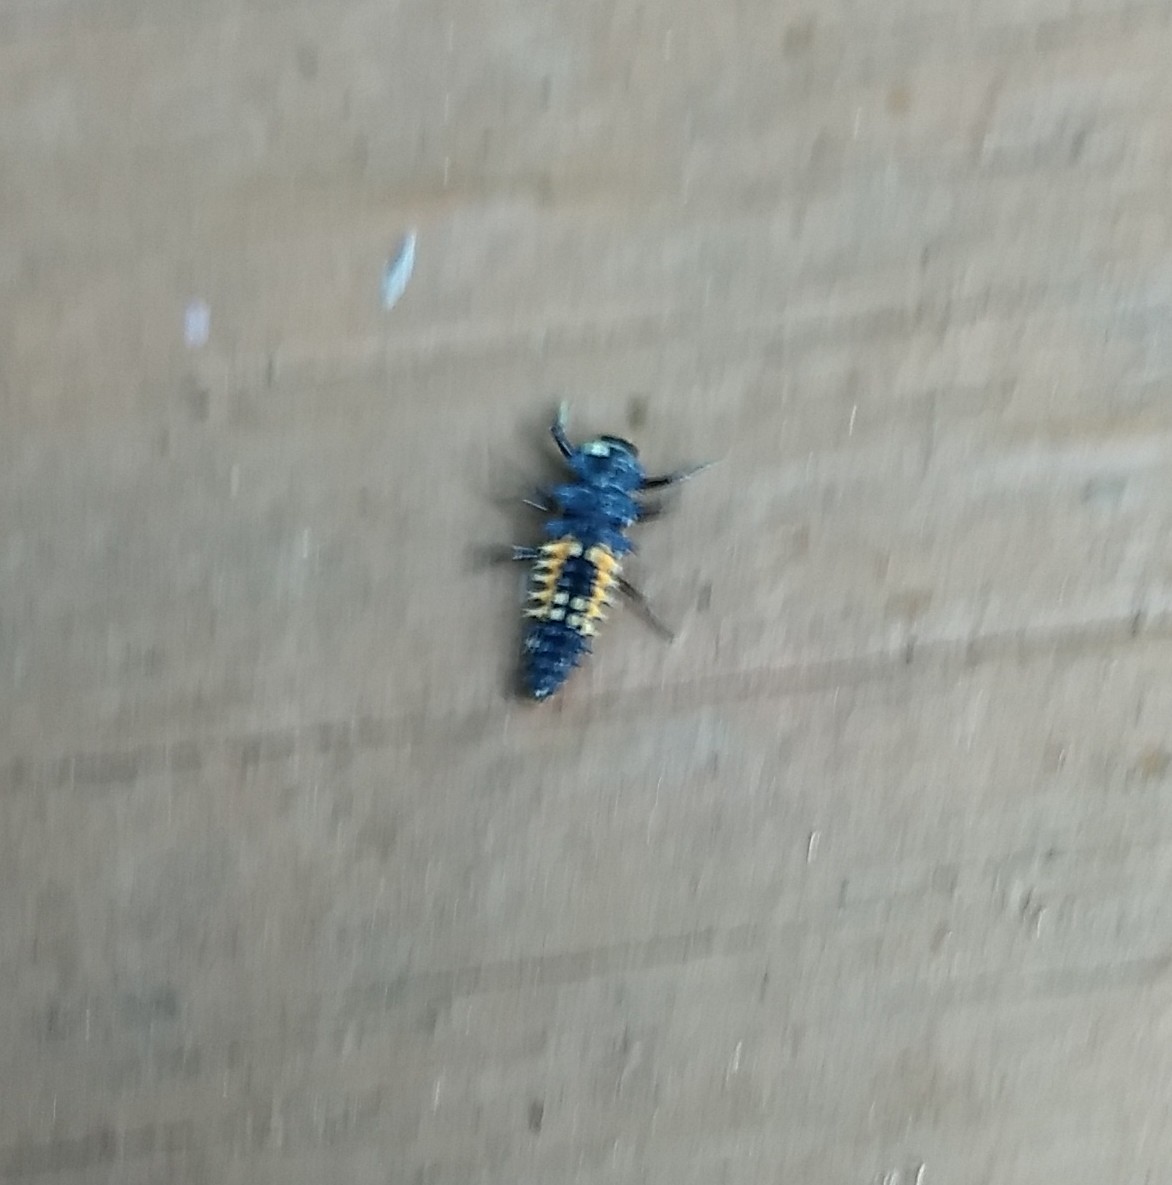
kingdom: Animalia
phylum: Arthropoda
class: Insecta
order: Coleoptera
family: Coccinellidae
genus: Harmonia
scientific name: Harmonia axyridis
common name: Harlequin ladybird
